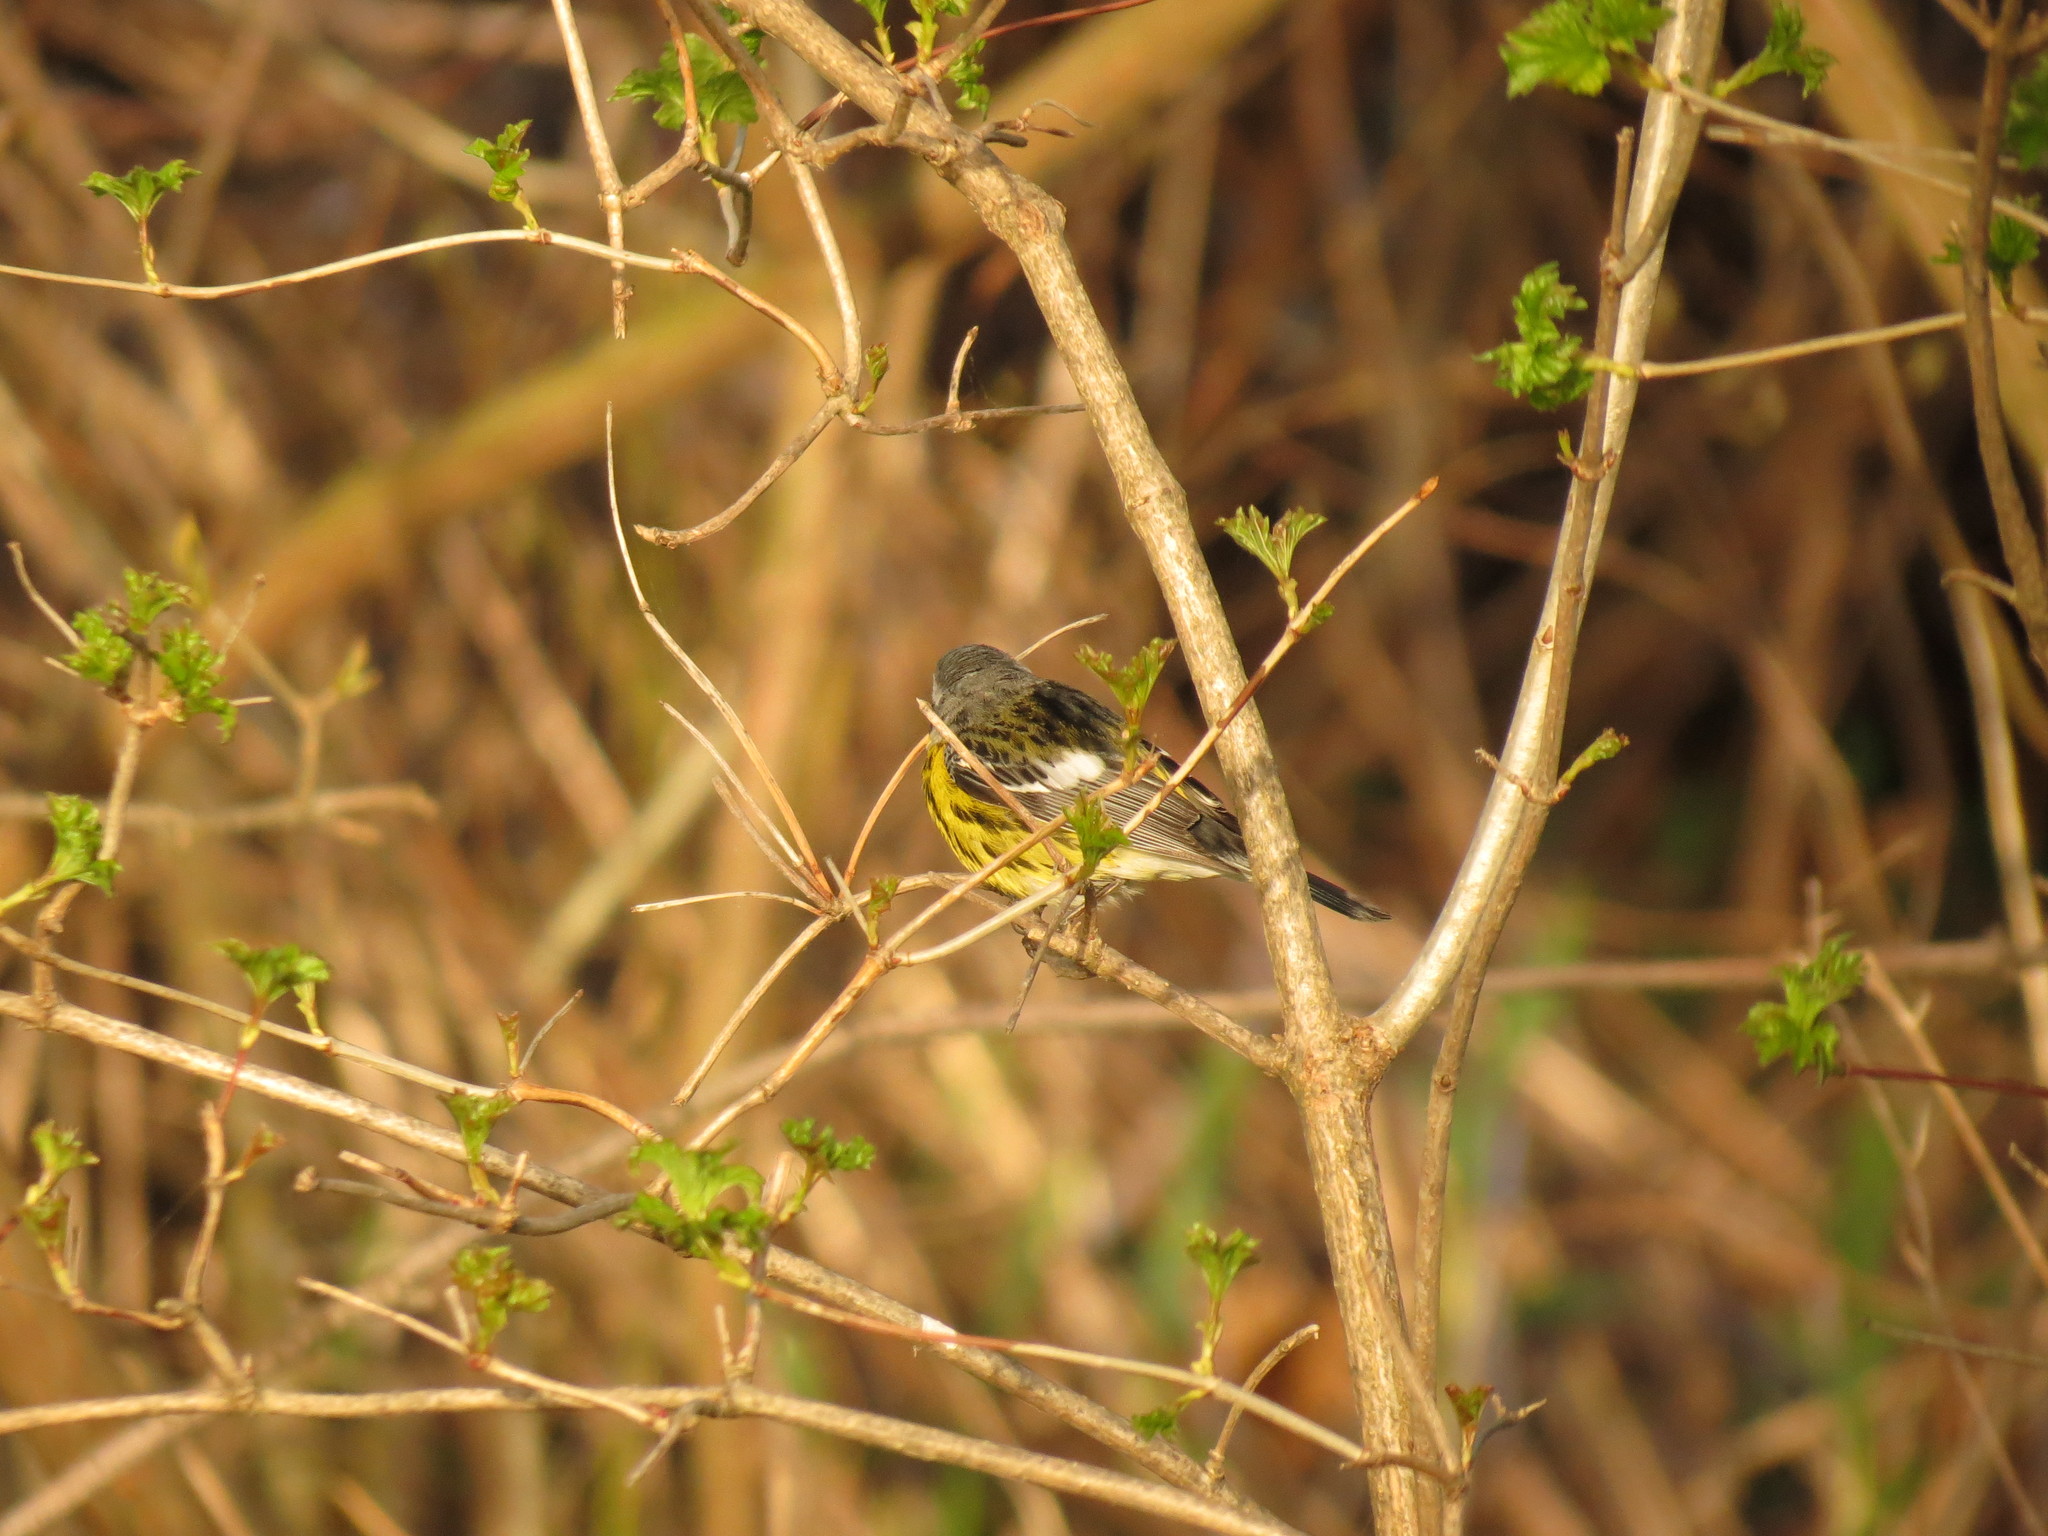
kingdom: Animalia
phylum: Chordata
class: Aves
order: Passeriformes
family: Parulidae
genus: Setophaga
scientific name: Setophaga magnolia
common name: Magnolia warbler
